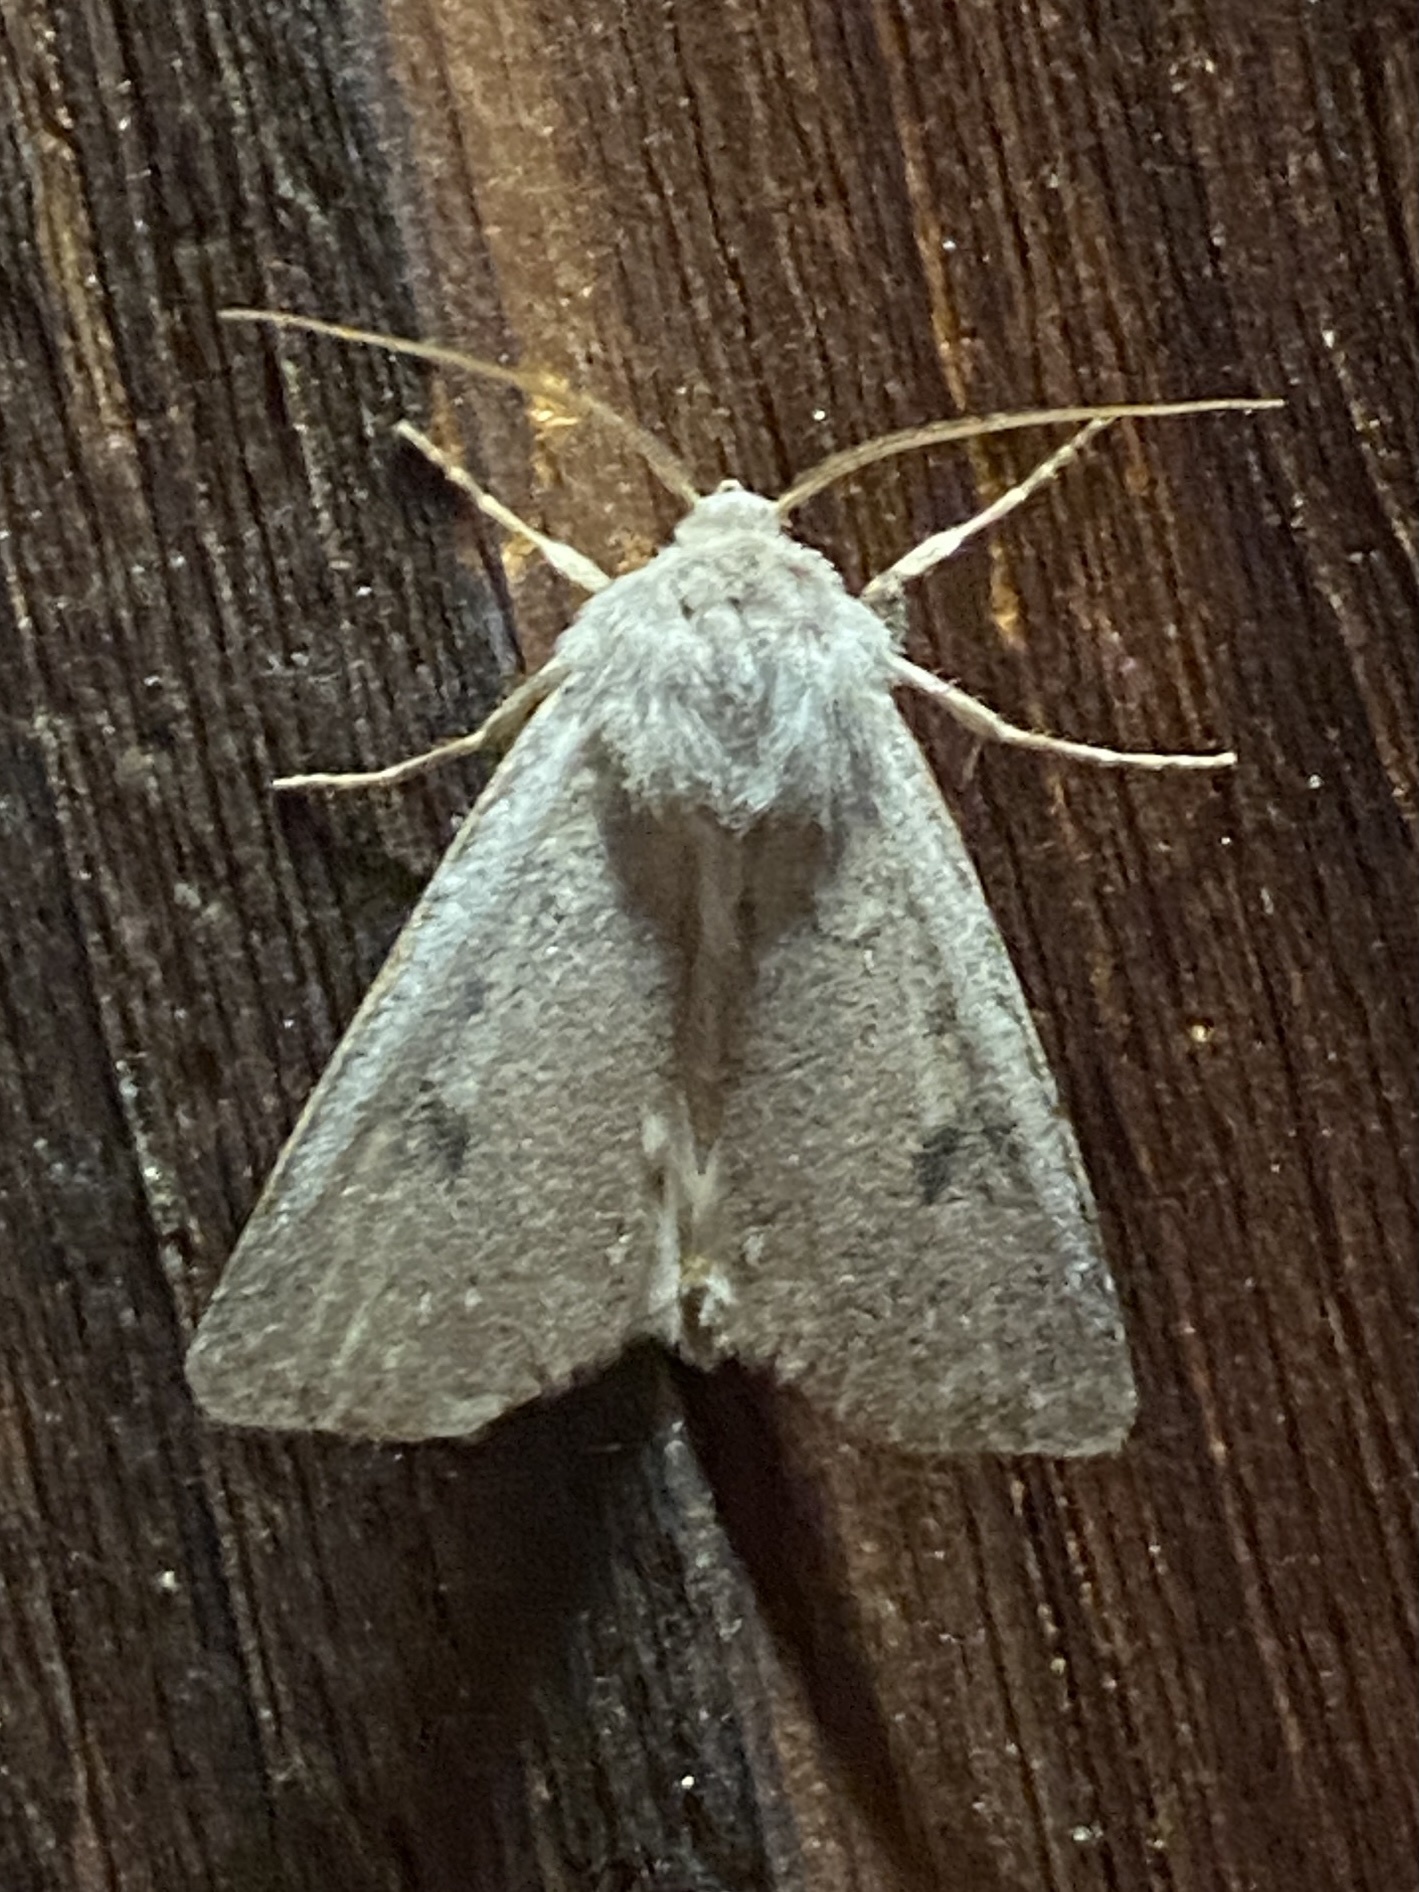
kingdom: Animalia
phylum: Arthropoda
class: Insecta
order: Lepidoptera
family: Noctuidae
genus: Agrotis
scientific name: Agrotis vetusta
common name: Old man dart
